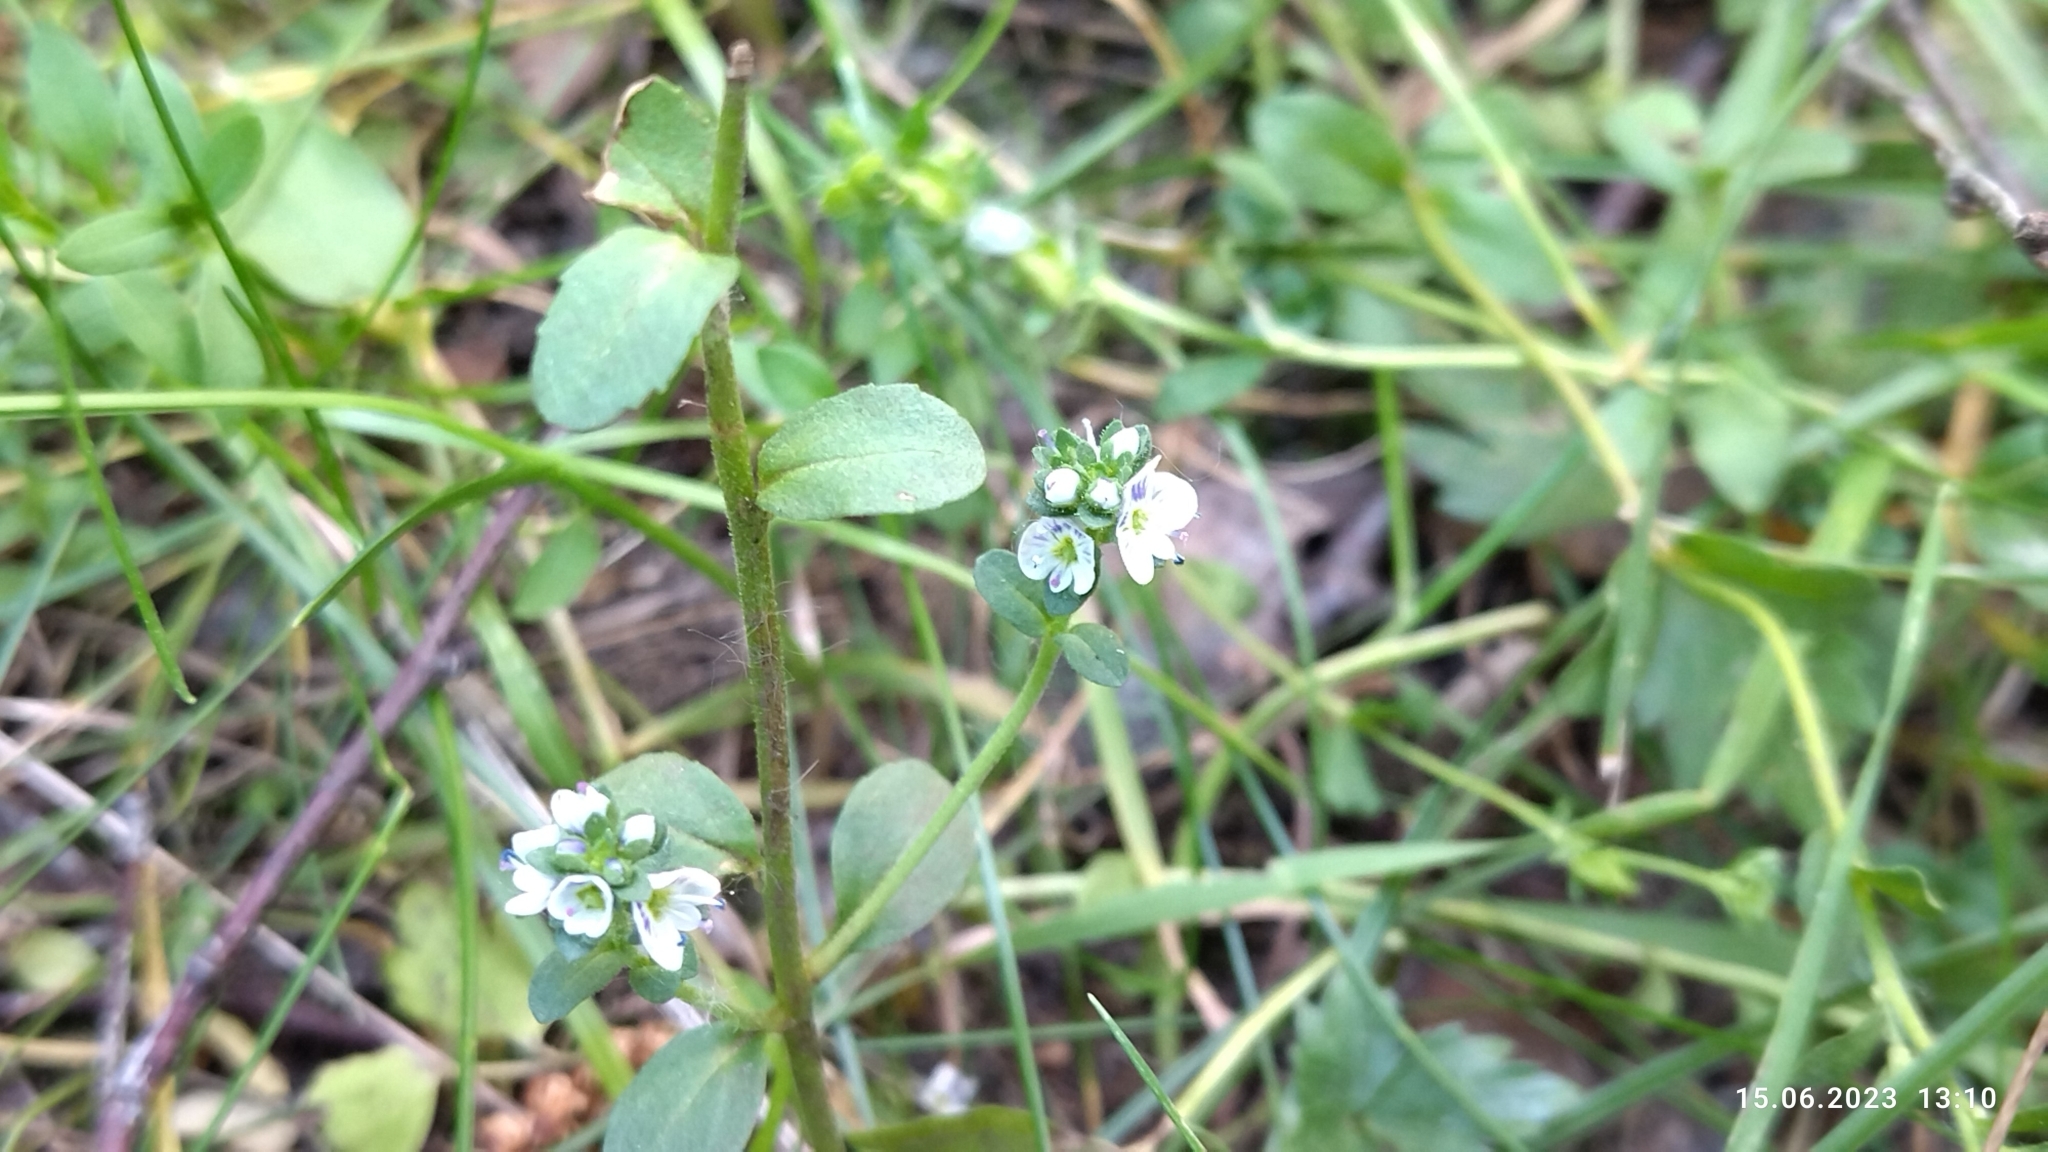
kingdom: Plantae
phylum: Tracheophyta
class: Magnoliopsida
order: Lamiales
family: Plantaginaceae
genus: Veronica
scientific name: Veronica serpyllifolia
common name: Thyme-leaved speedwell
